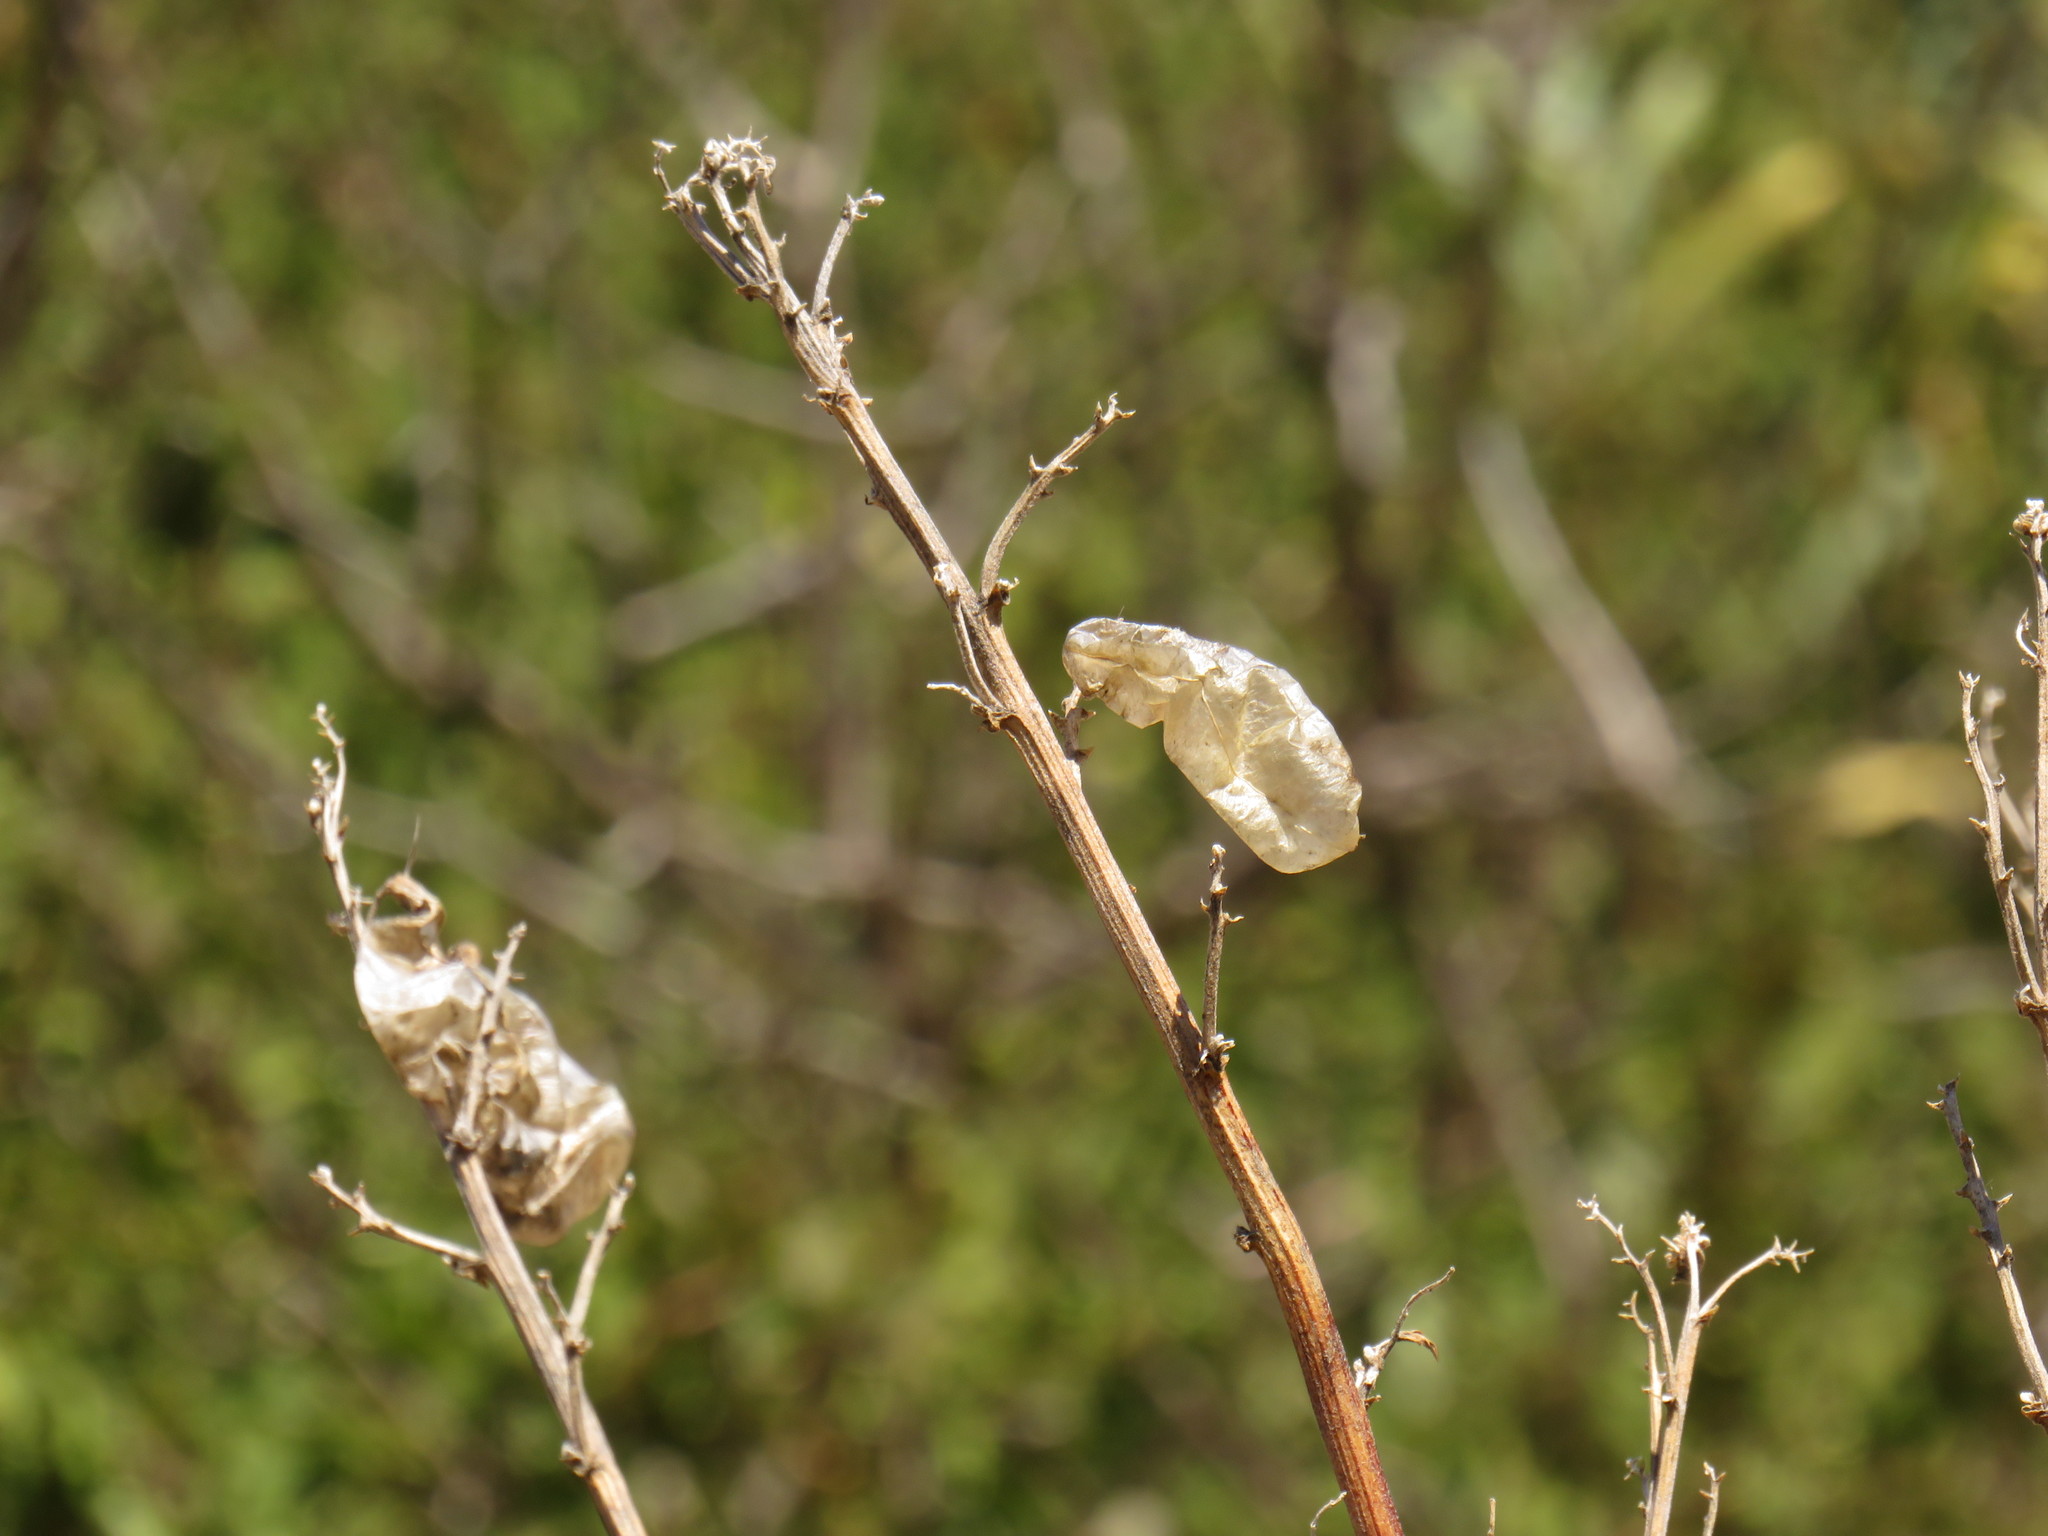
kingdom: Plantae
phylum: Tracheophyta
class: Magnoliopsida
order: Fabales
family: Fabaceae
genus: Lessertia
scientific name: Lessertia frutescens
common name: Balloon-pea
